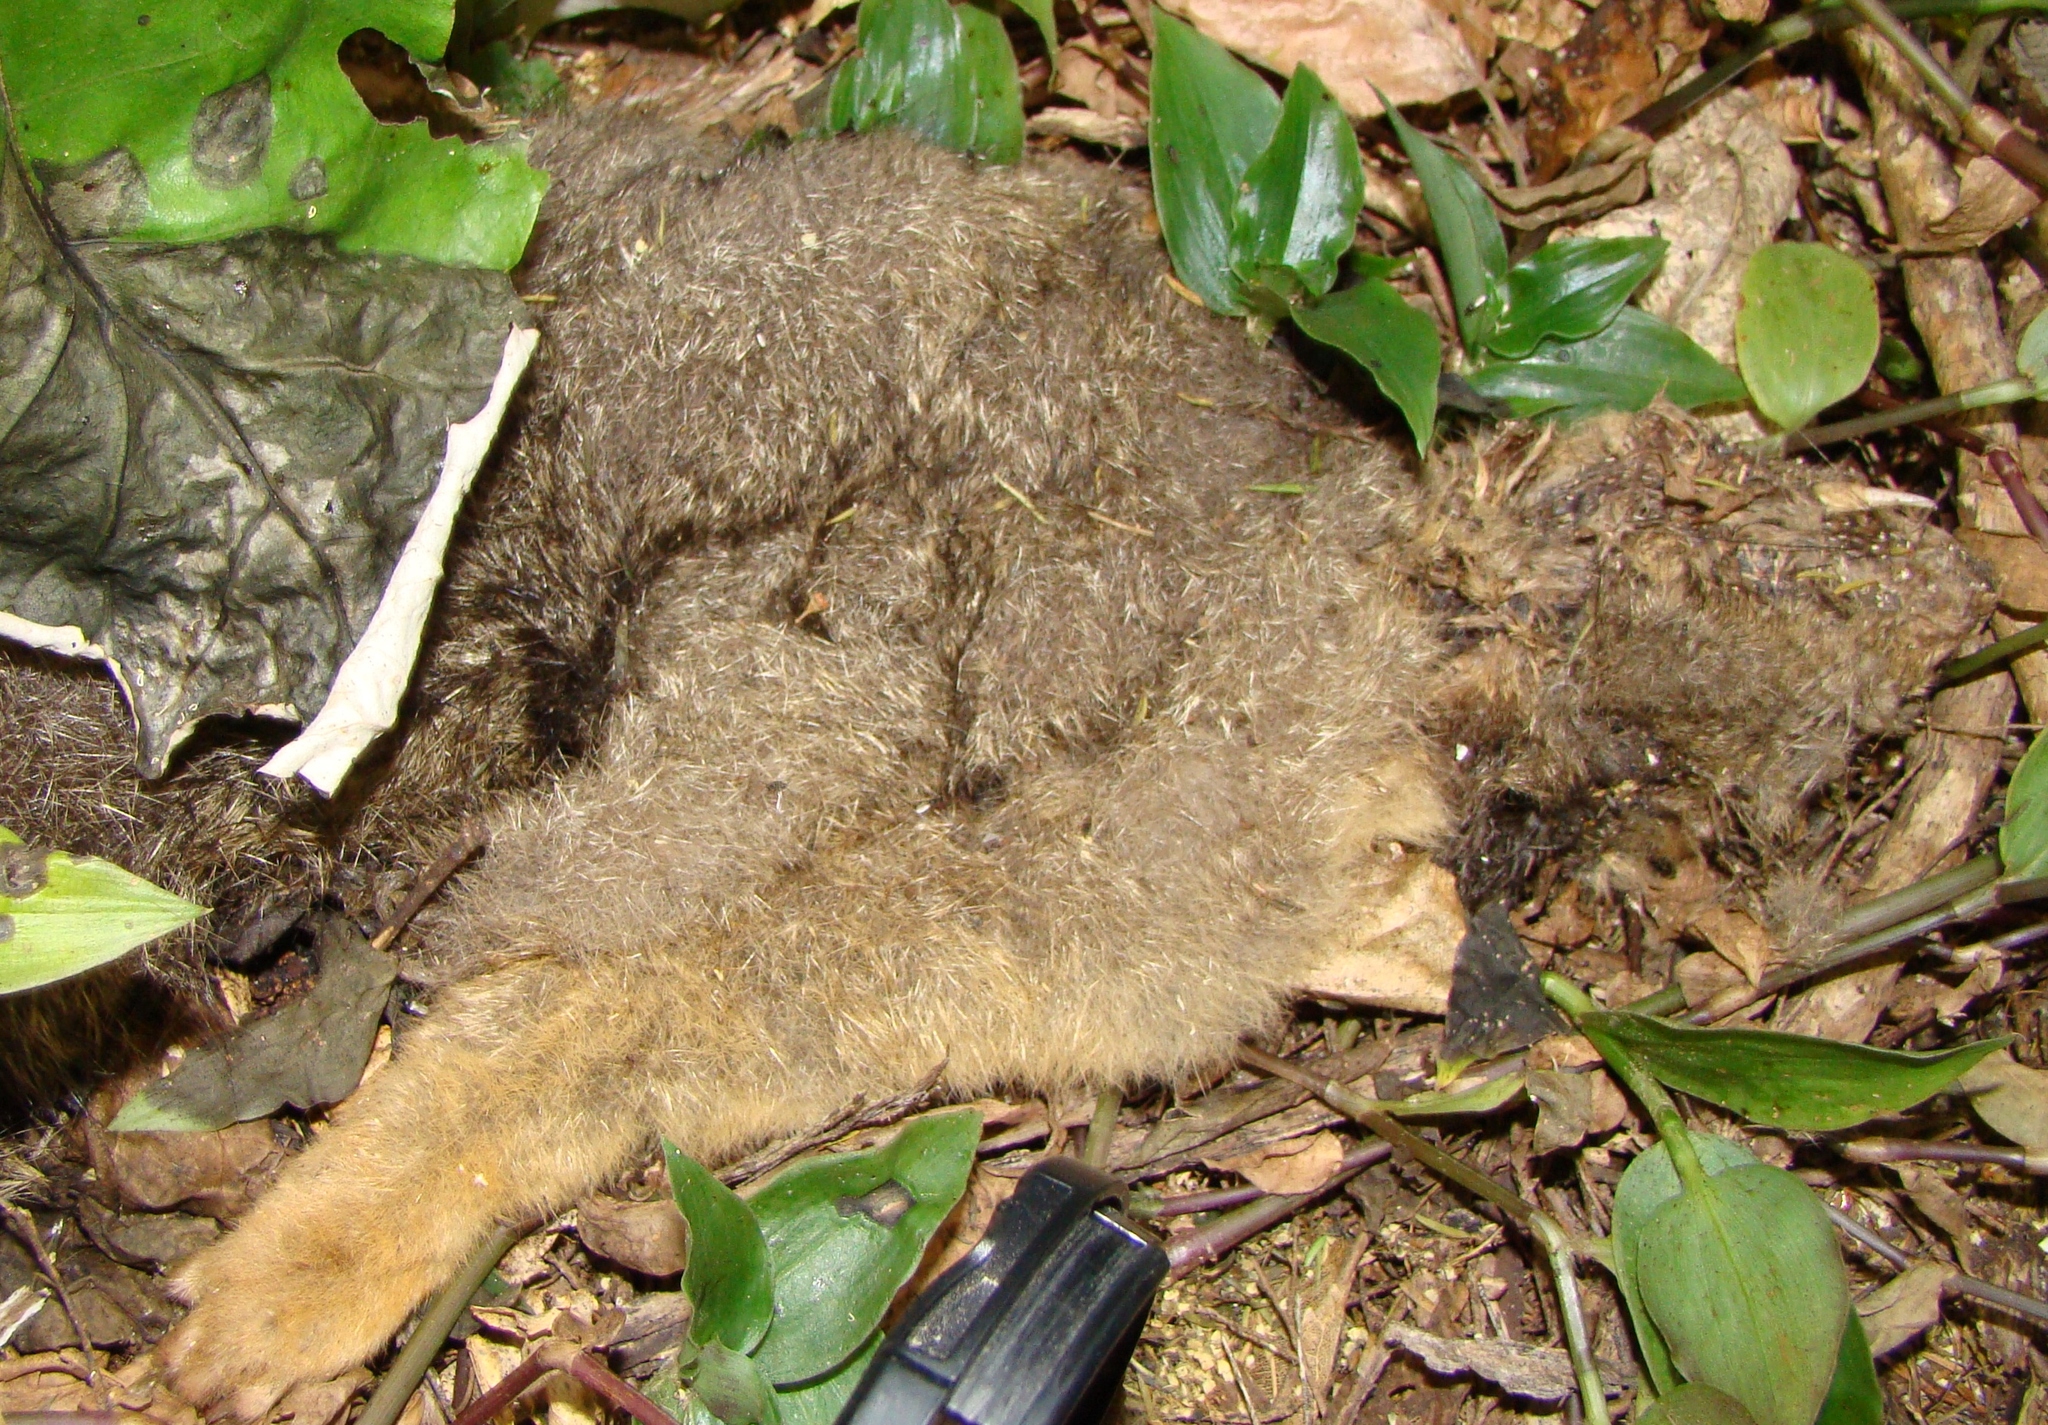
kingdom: Animalia
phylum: Chordata
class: Mammalia
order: Diprotodontia
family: Phalangeridae
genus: Trichosurus
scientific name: Trichosurus vulpecula
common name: Common brushtail
